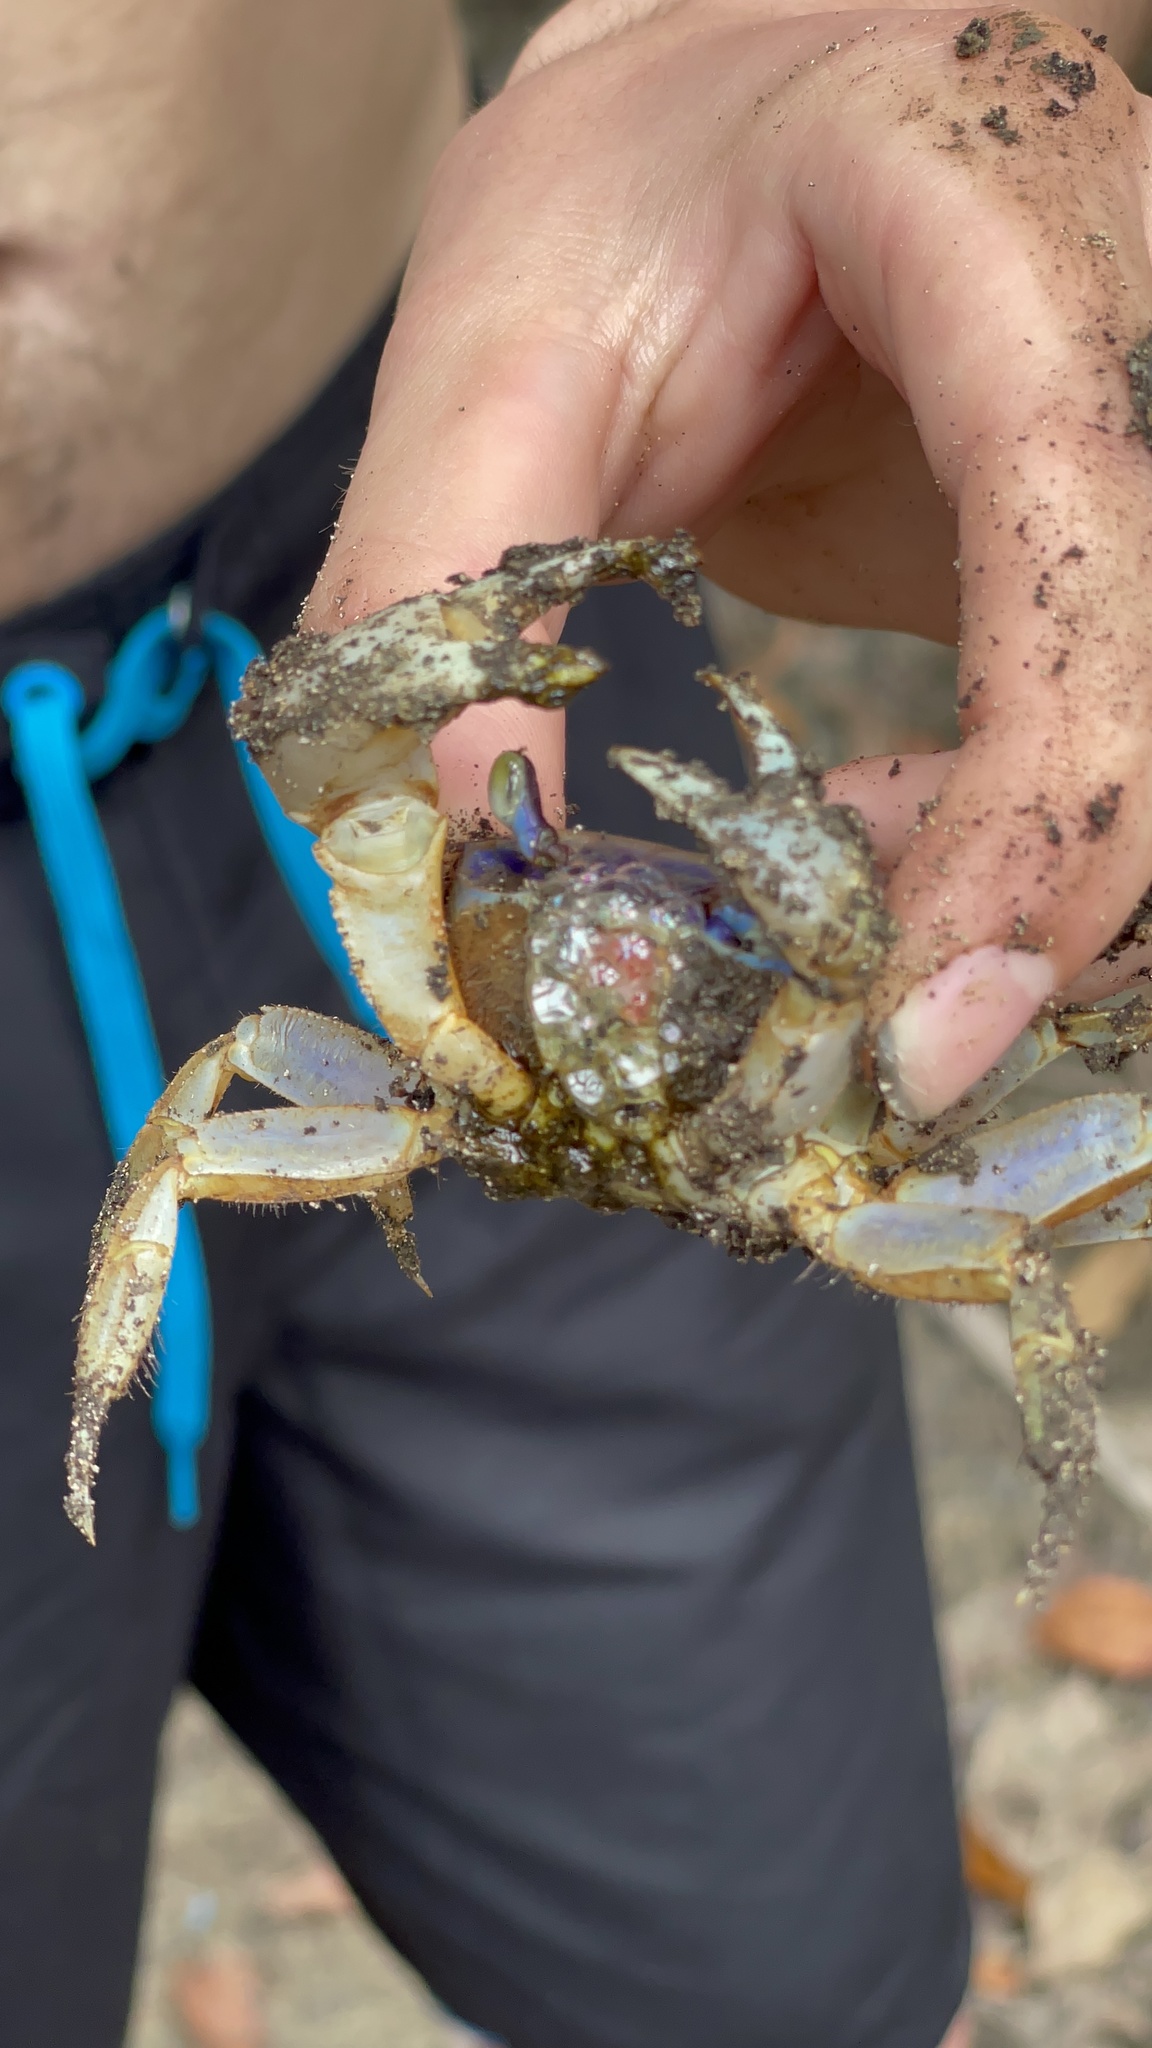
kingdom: Animalia
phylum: Arthropoda
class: Malacostraca
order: Decapoda
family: Gecarcinidae
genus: Cardisoma
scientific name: Cardisoma guanhumi
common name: Great land crab
